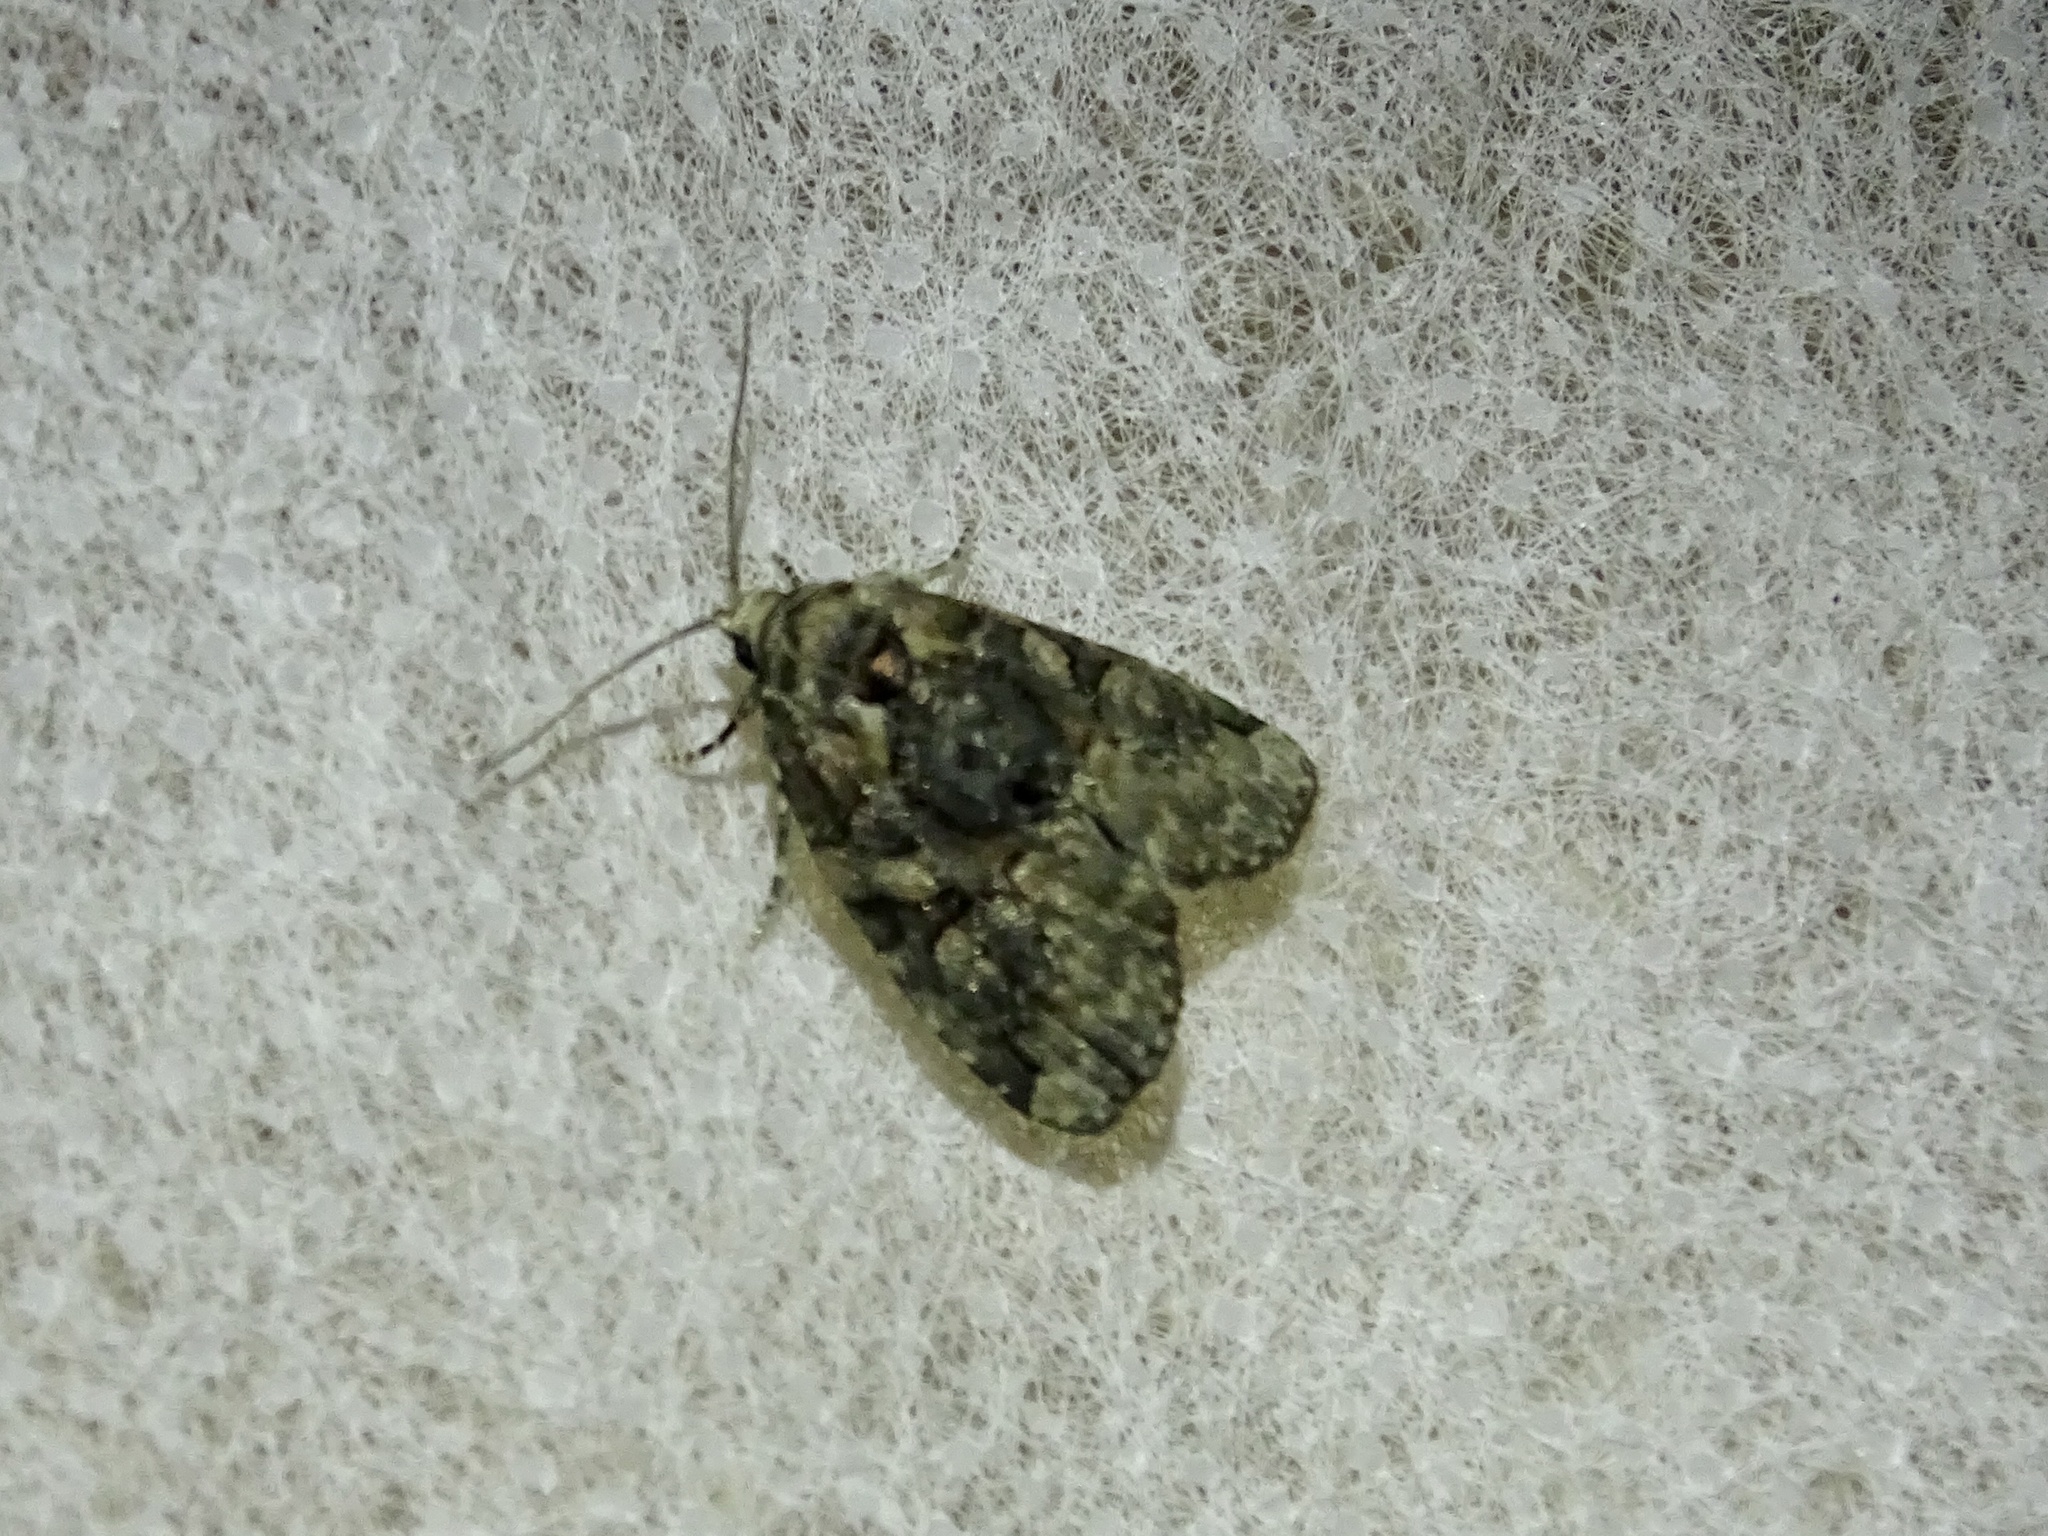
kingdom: Animalia
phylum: Arthropoda
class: Insecta
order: Lepidoptera
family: Noctuidae
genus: Pseudeustrotia
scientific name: Pseudeustrotia indeterminata
